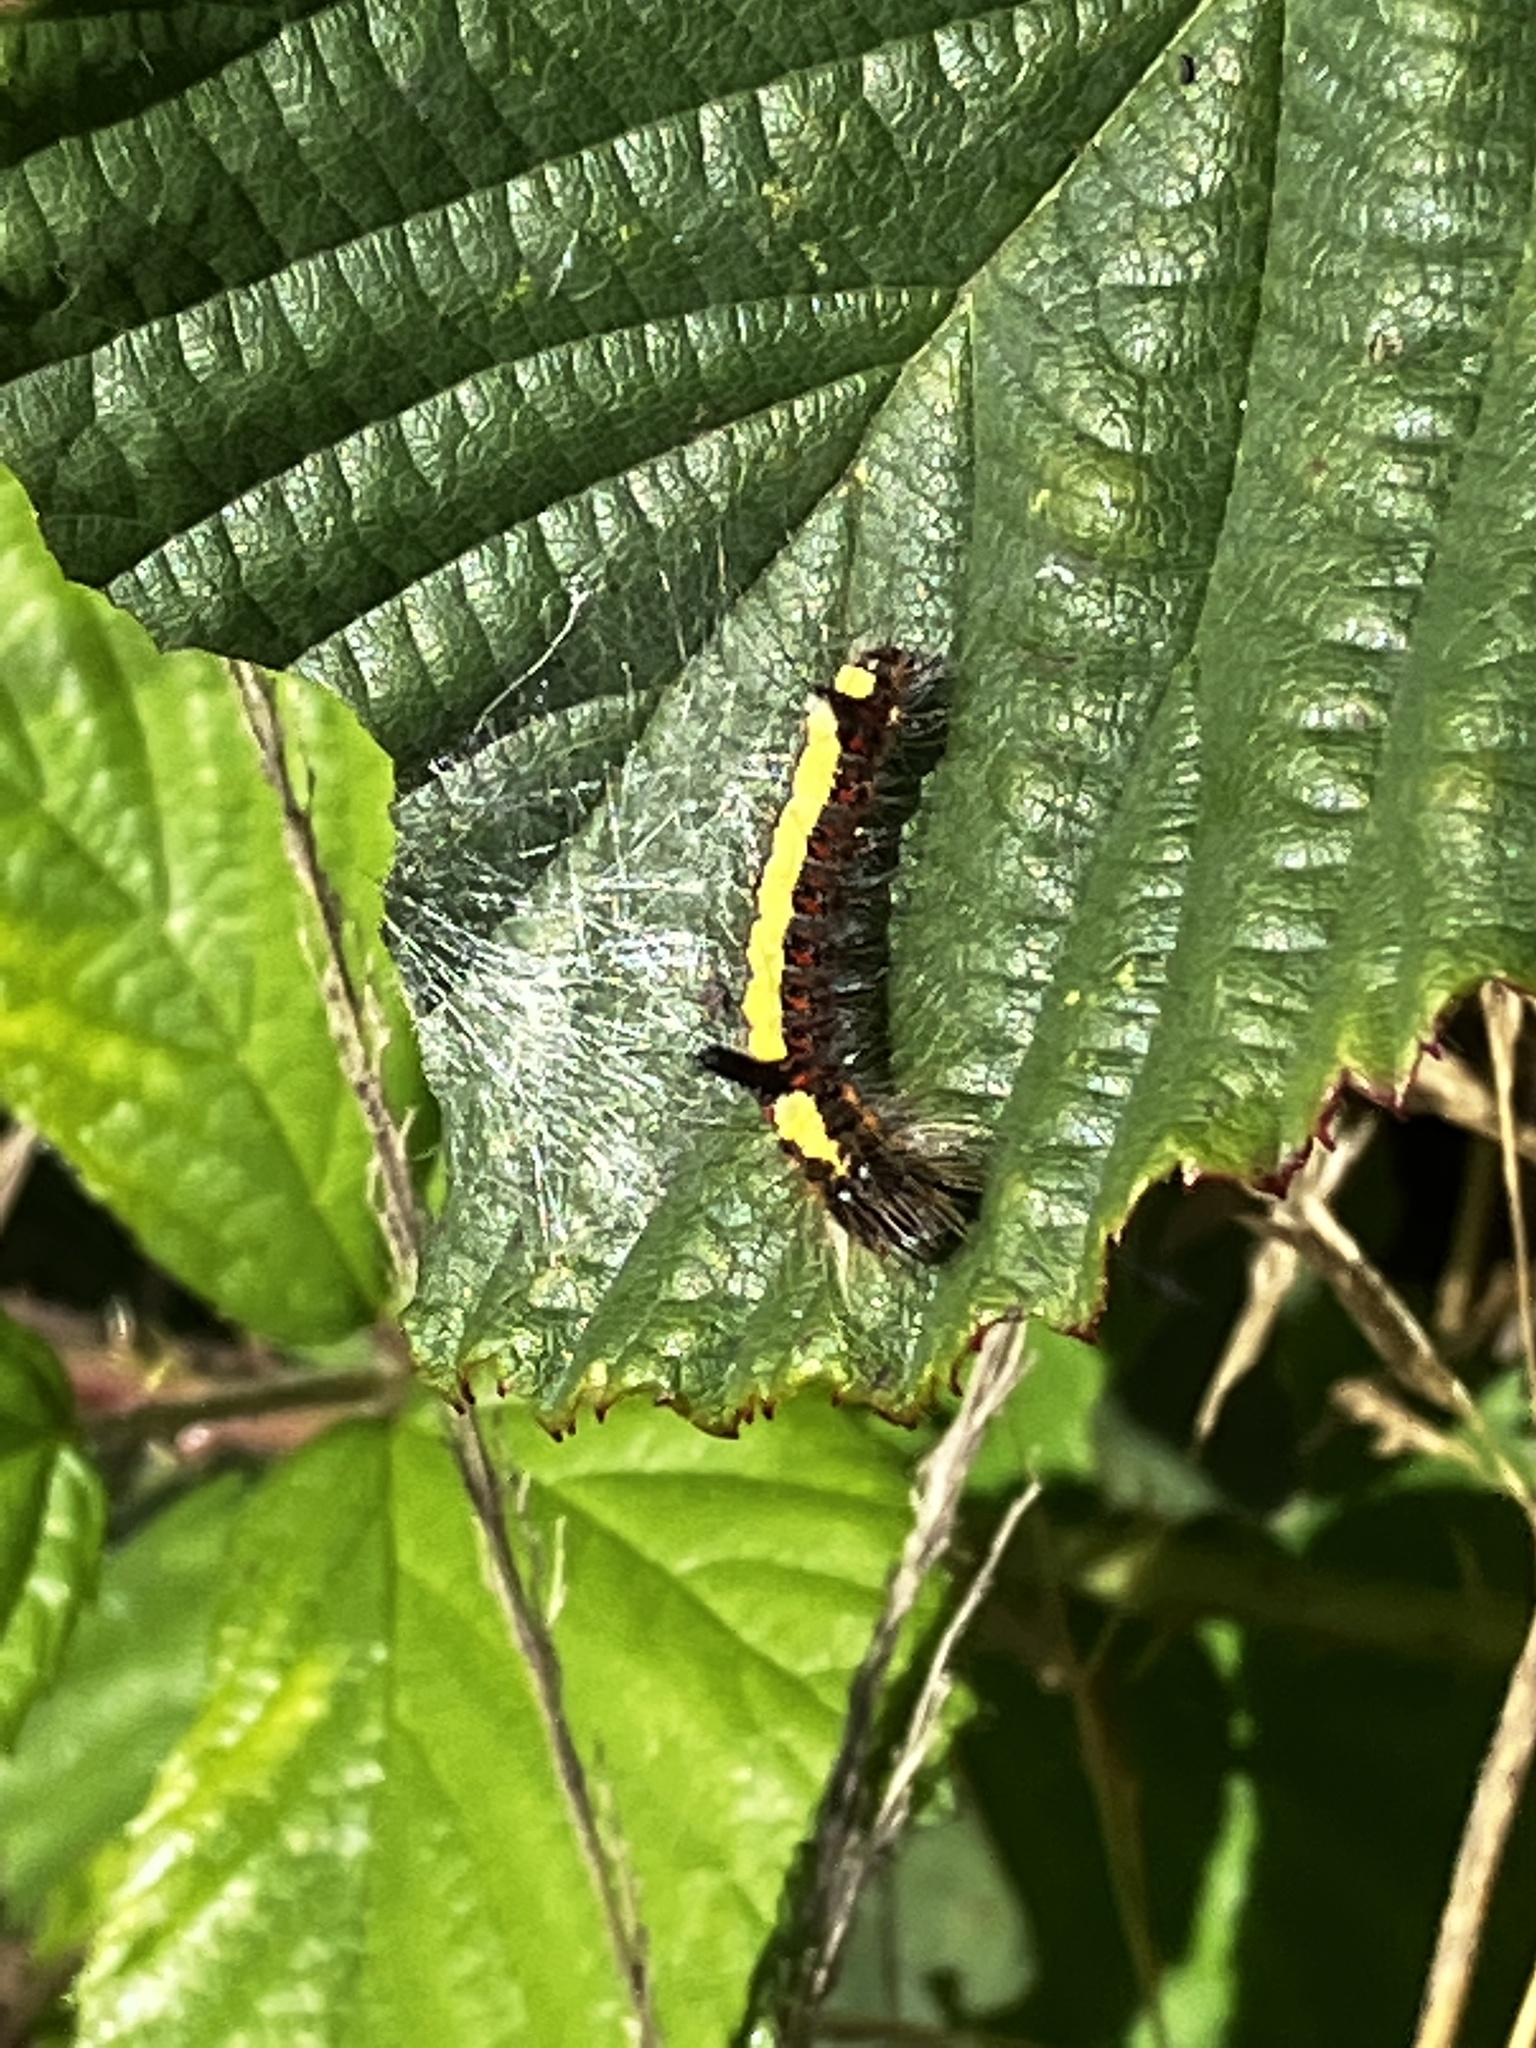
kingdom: Animalia
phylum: Arthropoda
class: Insecta
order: Lepidoptera
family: Noctuidae
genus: Acronicta
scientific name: Acronicta psi
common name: Grey dagger
